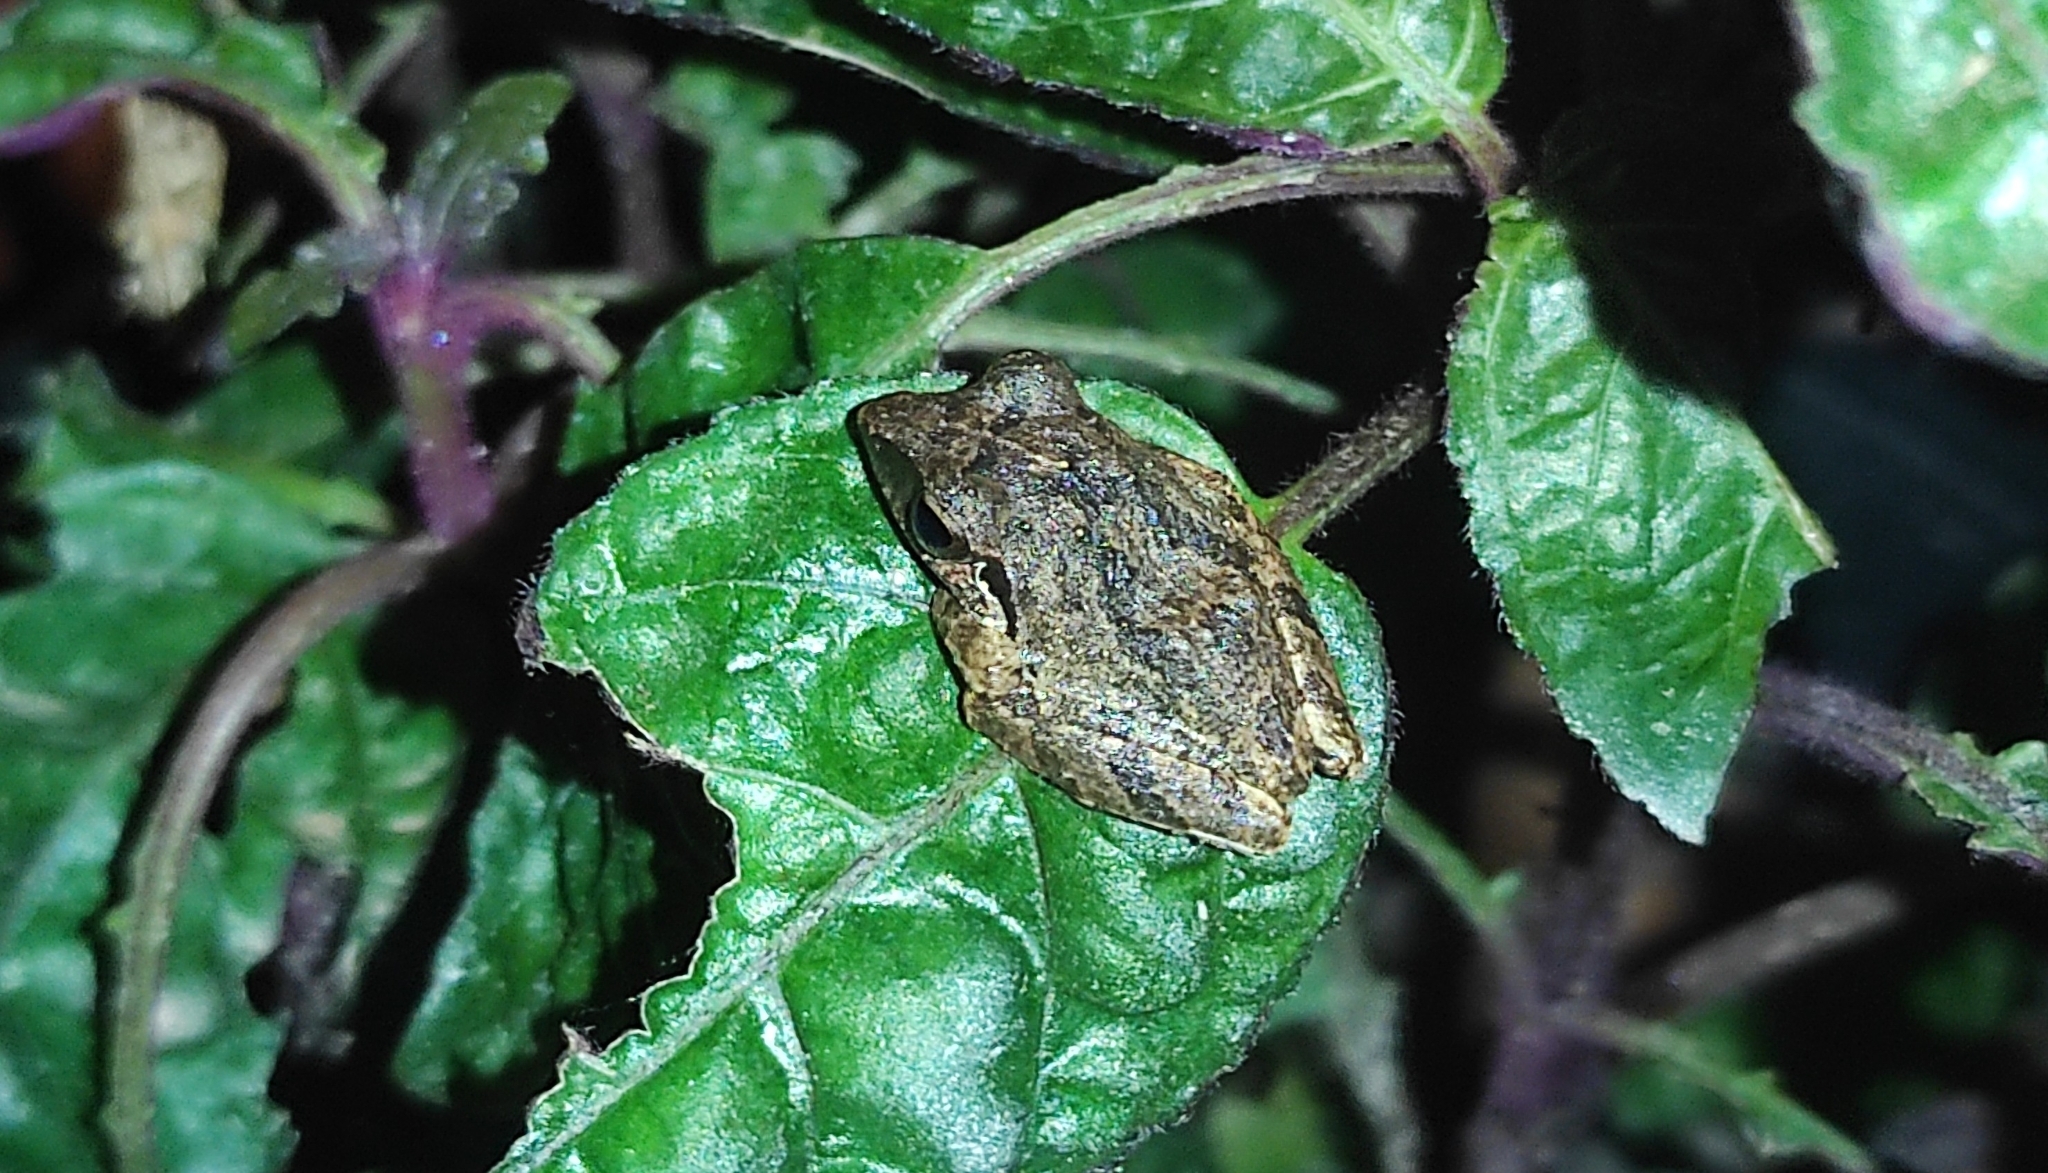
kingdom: Animalia
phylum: Chordata
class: Amphibia
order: Anura
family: Rhacophoridae
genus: Pseudophilautus
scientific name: Pseudophilautus wynaadensis
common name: Dark-eared bush frog
